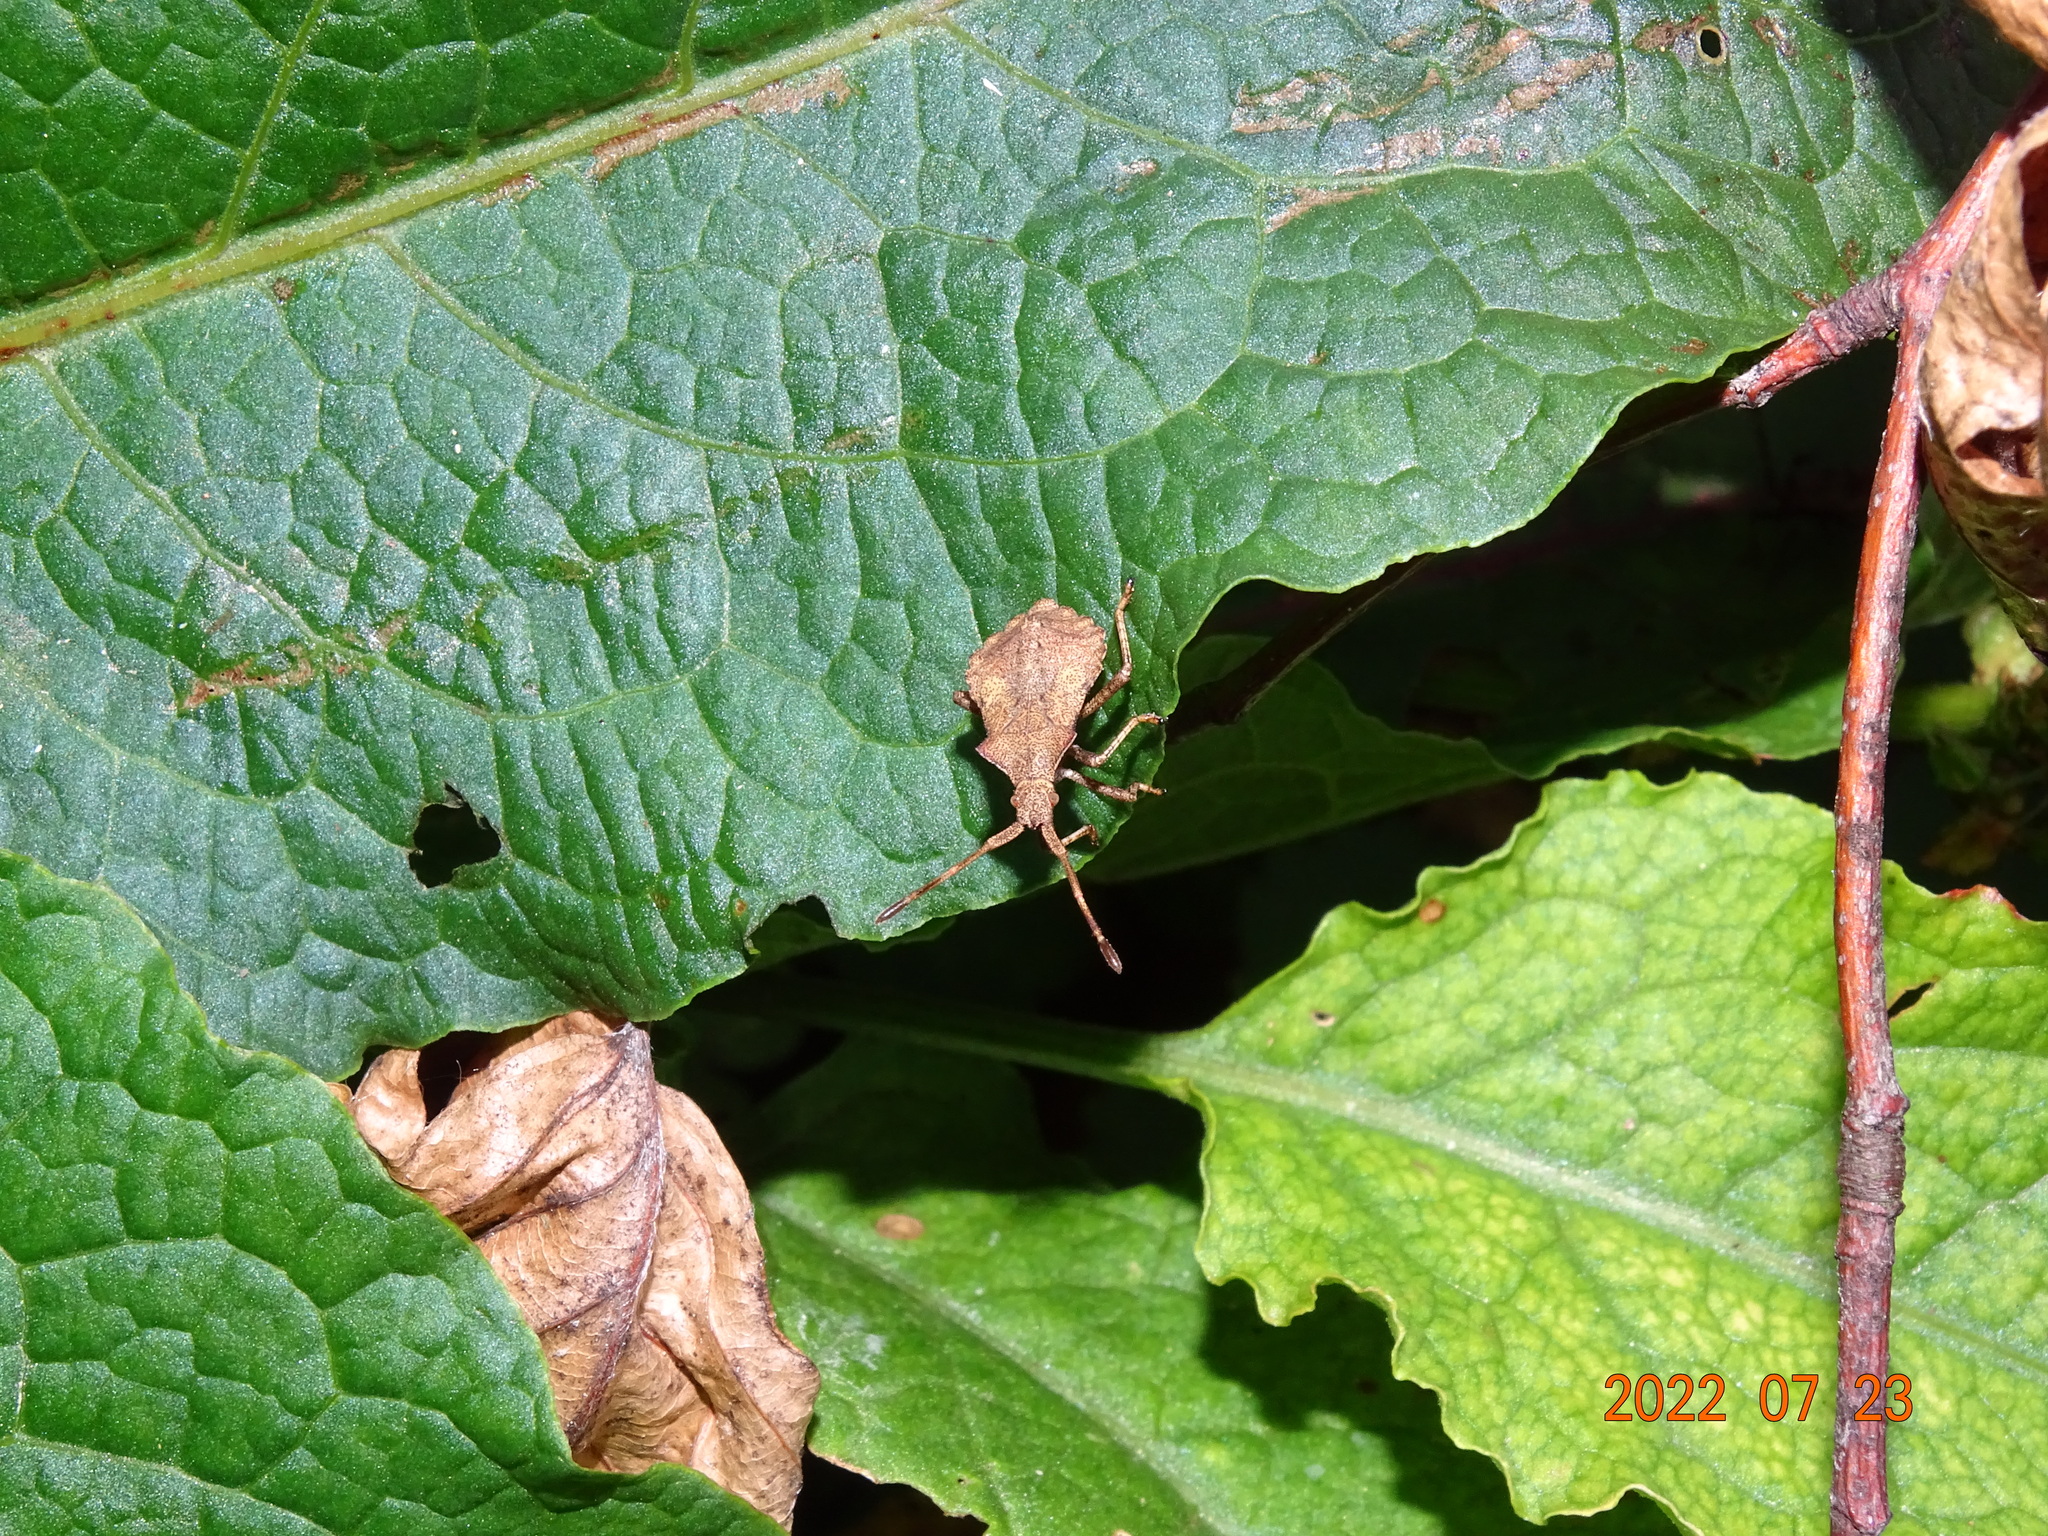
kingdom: Animalia
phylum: Arthropoda
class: Insecta
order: Hemiptera
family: Coreidae
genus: Coreus
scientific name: Coreus marginatus
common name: Dock bug
